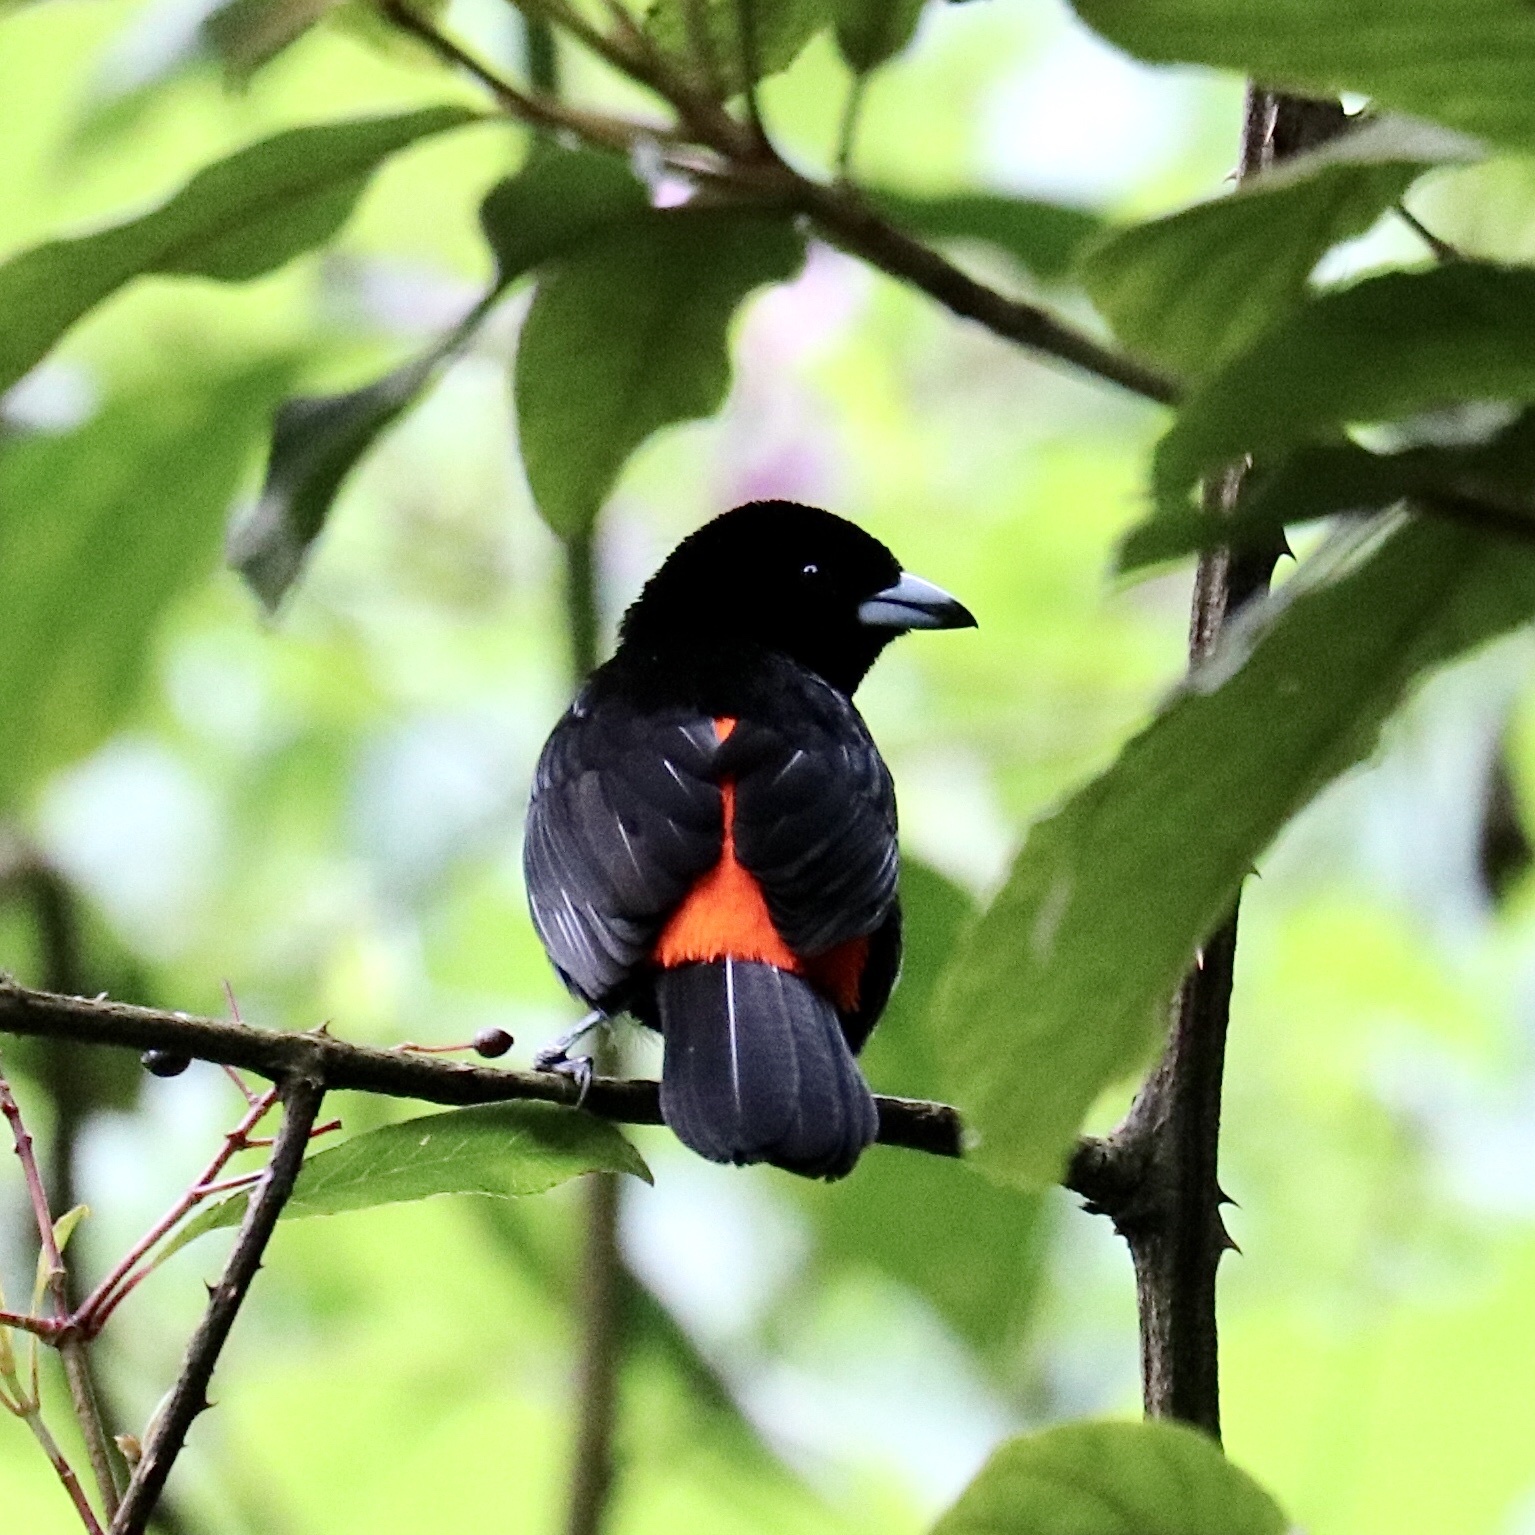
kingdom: Animalia
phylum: Chordata
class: Aves
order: Passeriformes
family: Thraupidae
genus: Ramphocelus
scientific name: Ramphocelus passerinii
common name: Passerini's tanager
